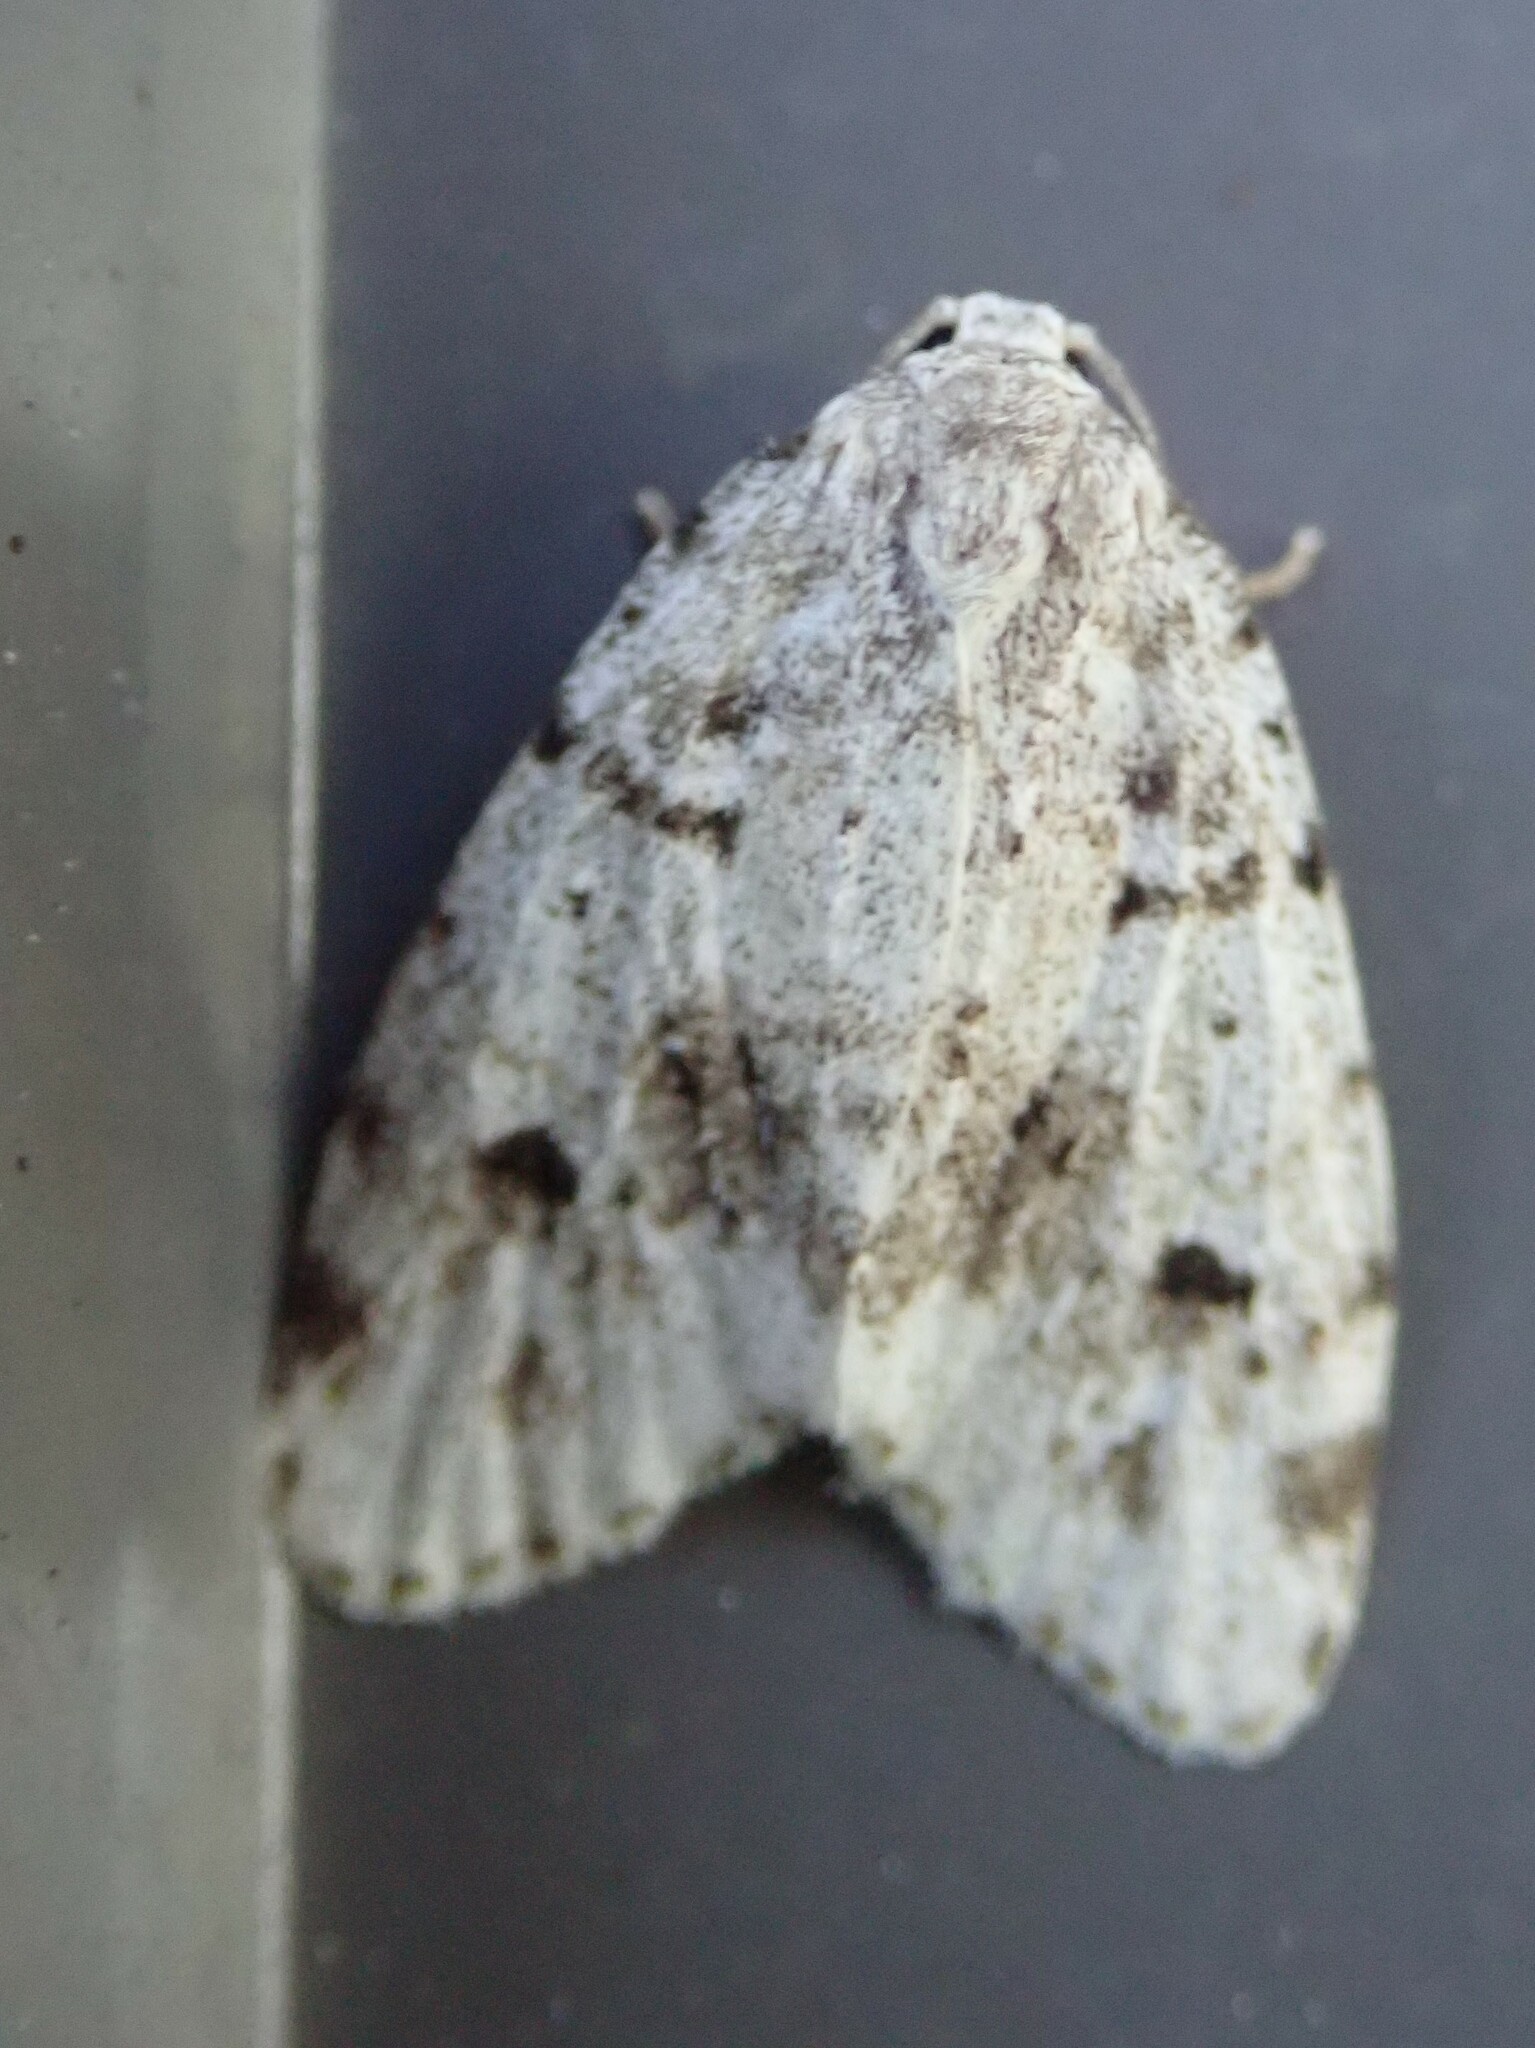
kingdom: Animalia
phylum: Arthropoda
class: Insecta
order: Lepidoptera
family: Erebidae
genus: Clemensia
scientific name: Clemensia umbrata
